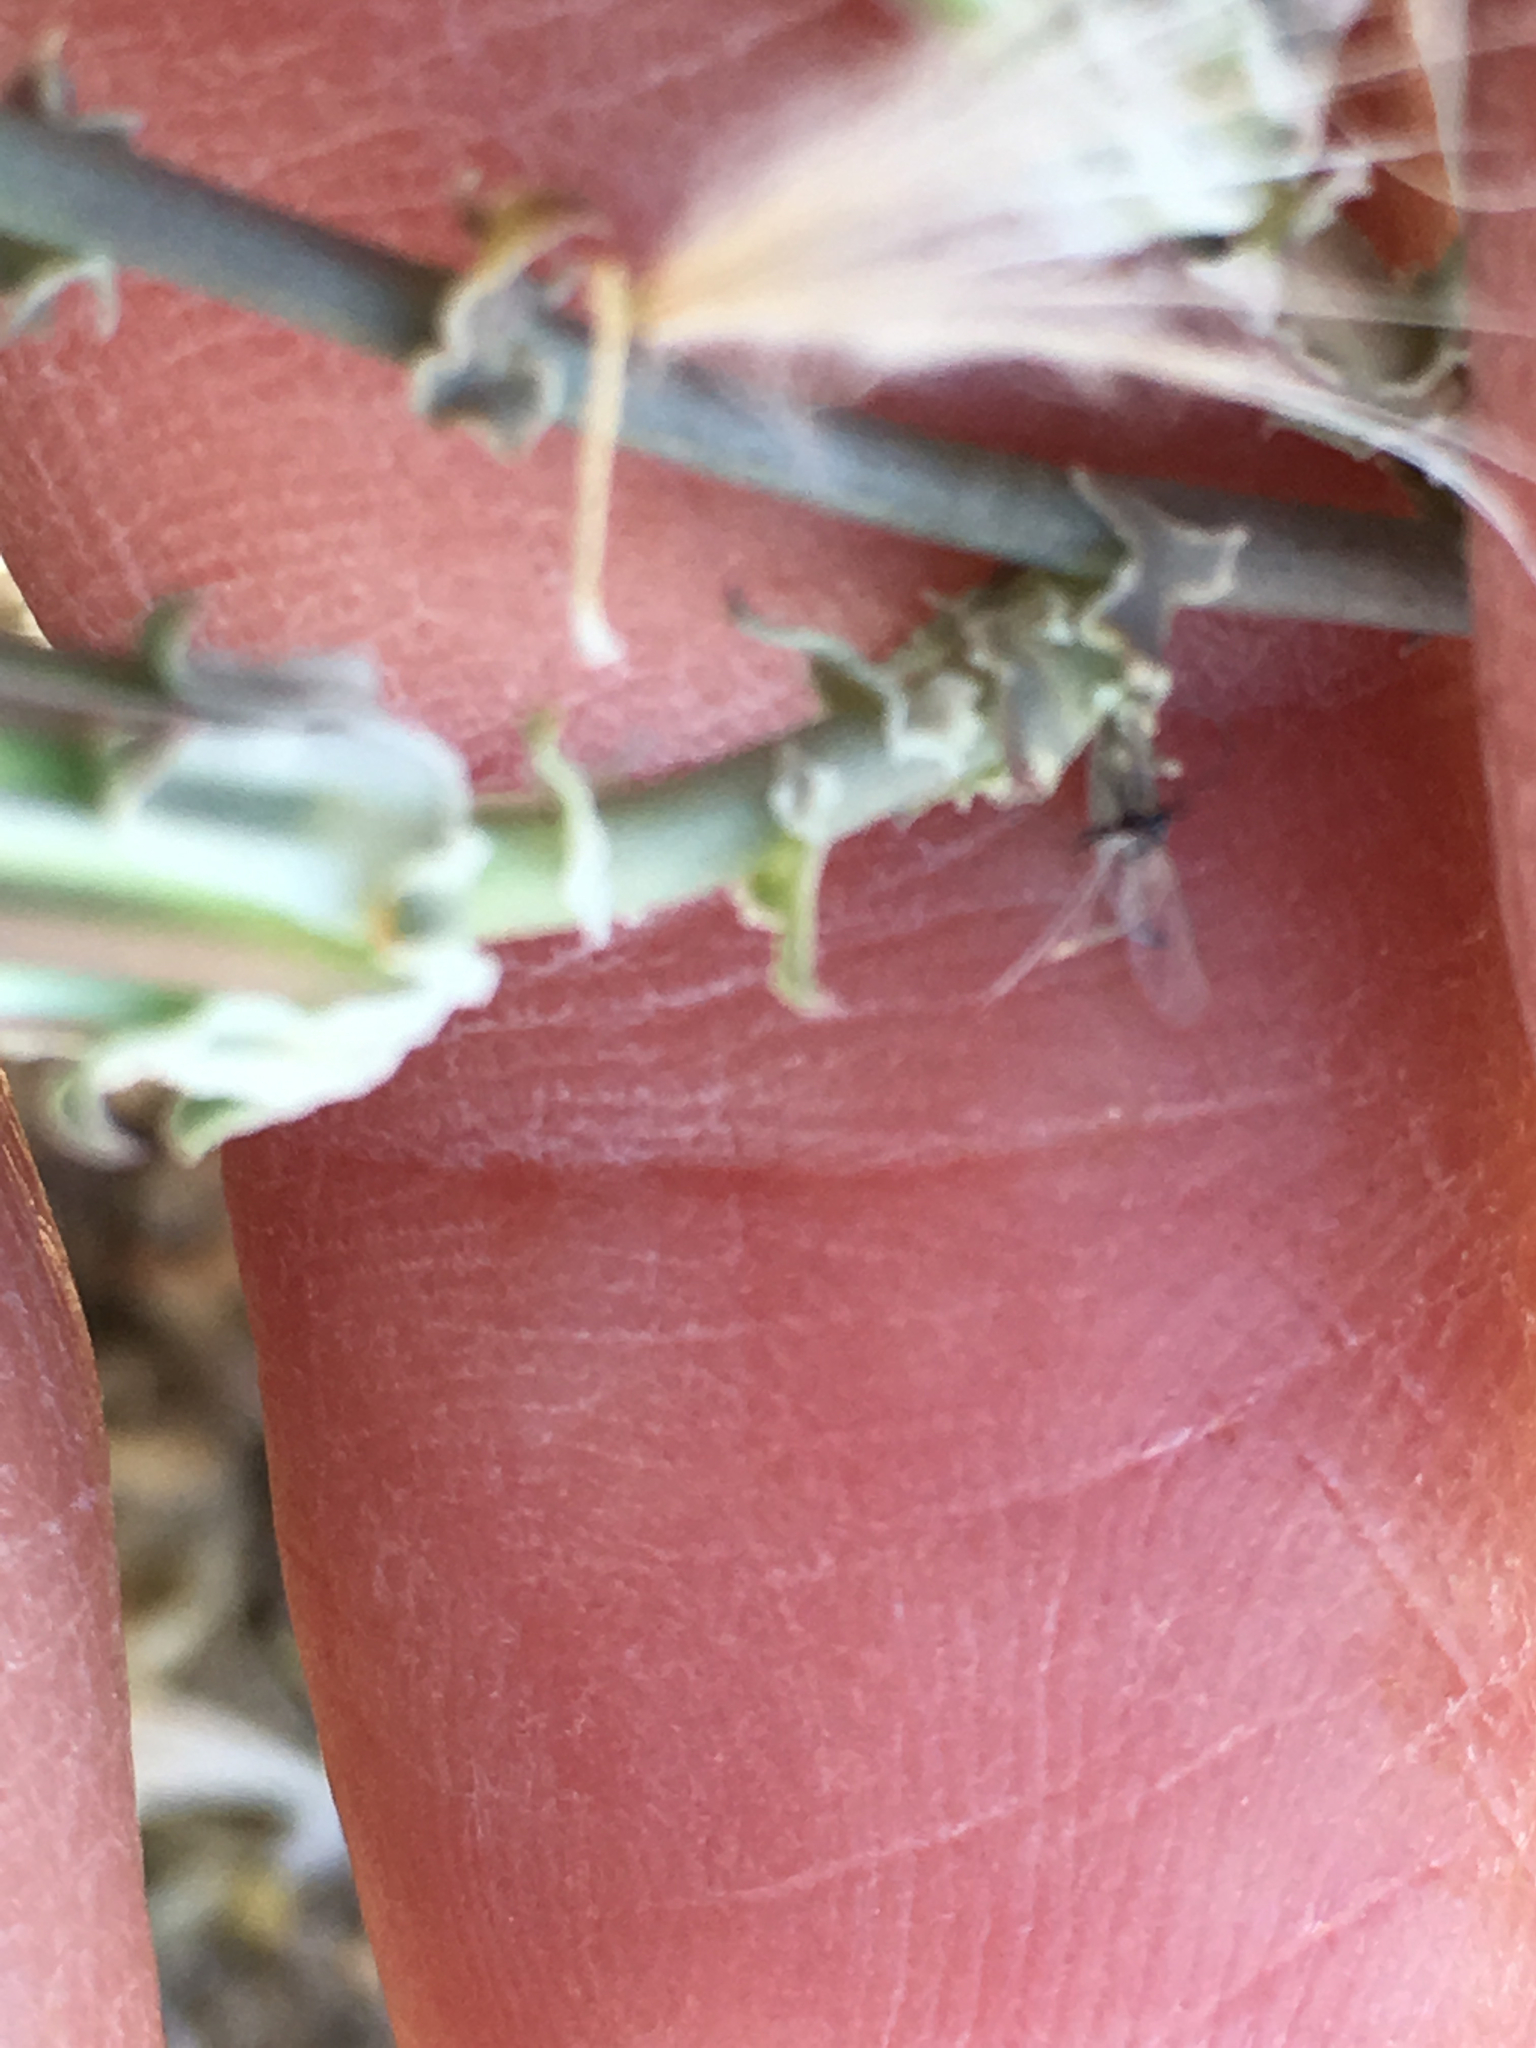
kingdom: Plantae
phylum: Tracheophyta
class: Magnoliopsida
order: Asterales
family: Asteraceae
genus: Rafinesquia
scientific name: Rafinesquia neomexicana
